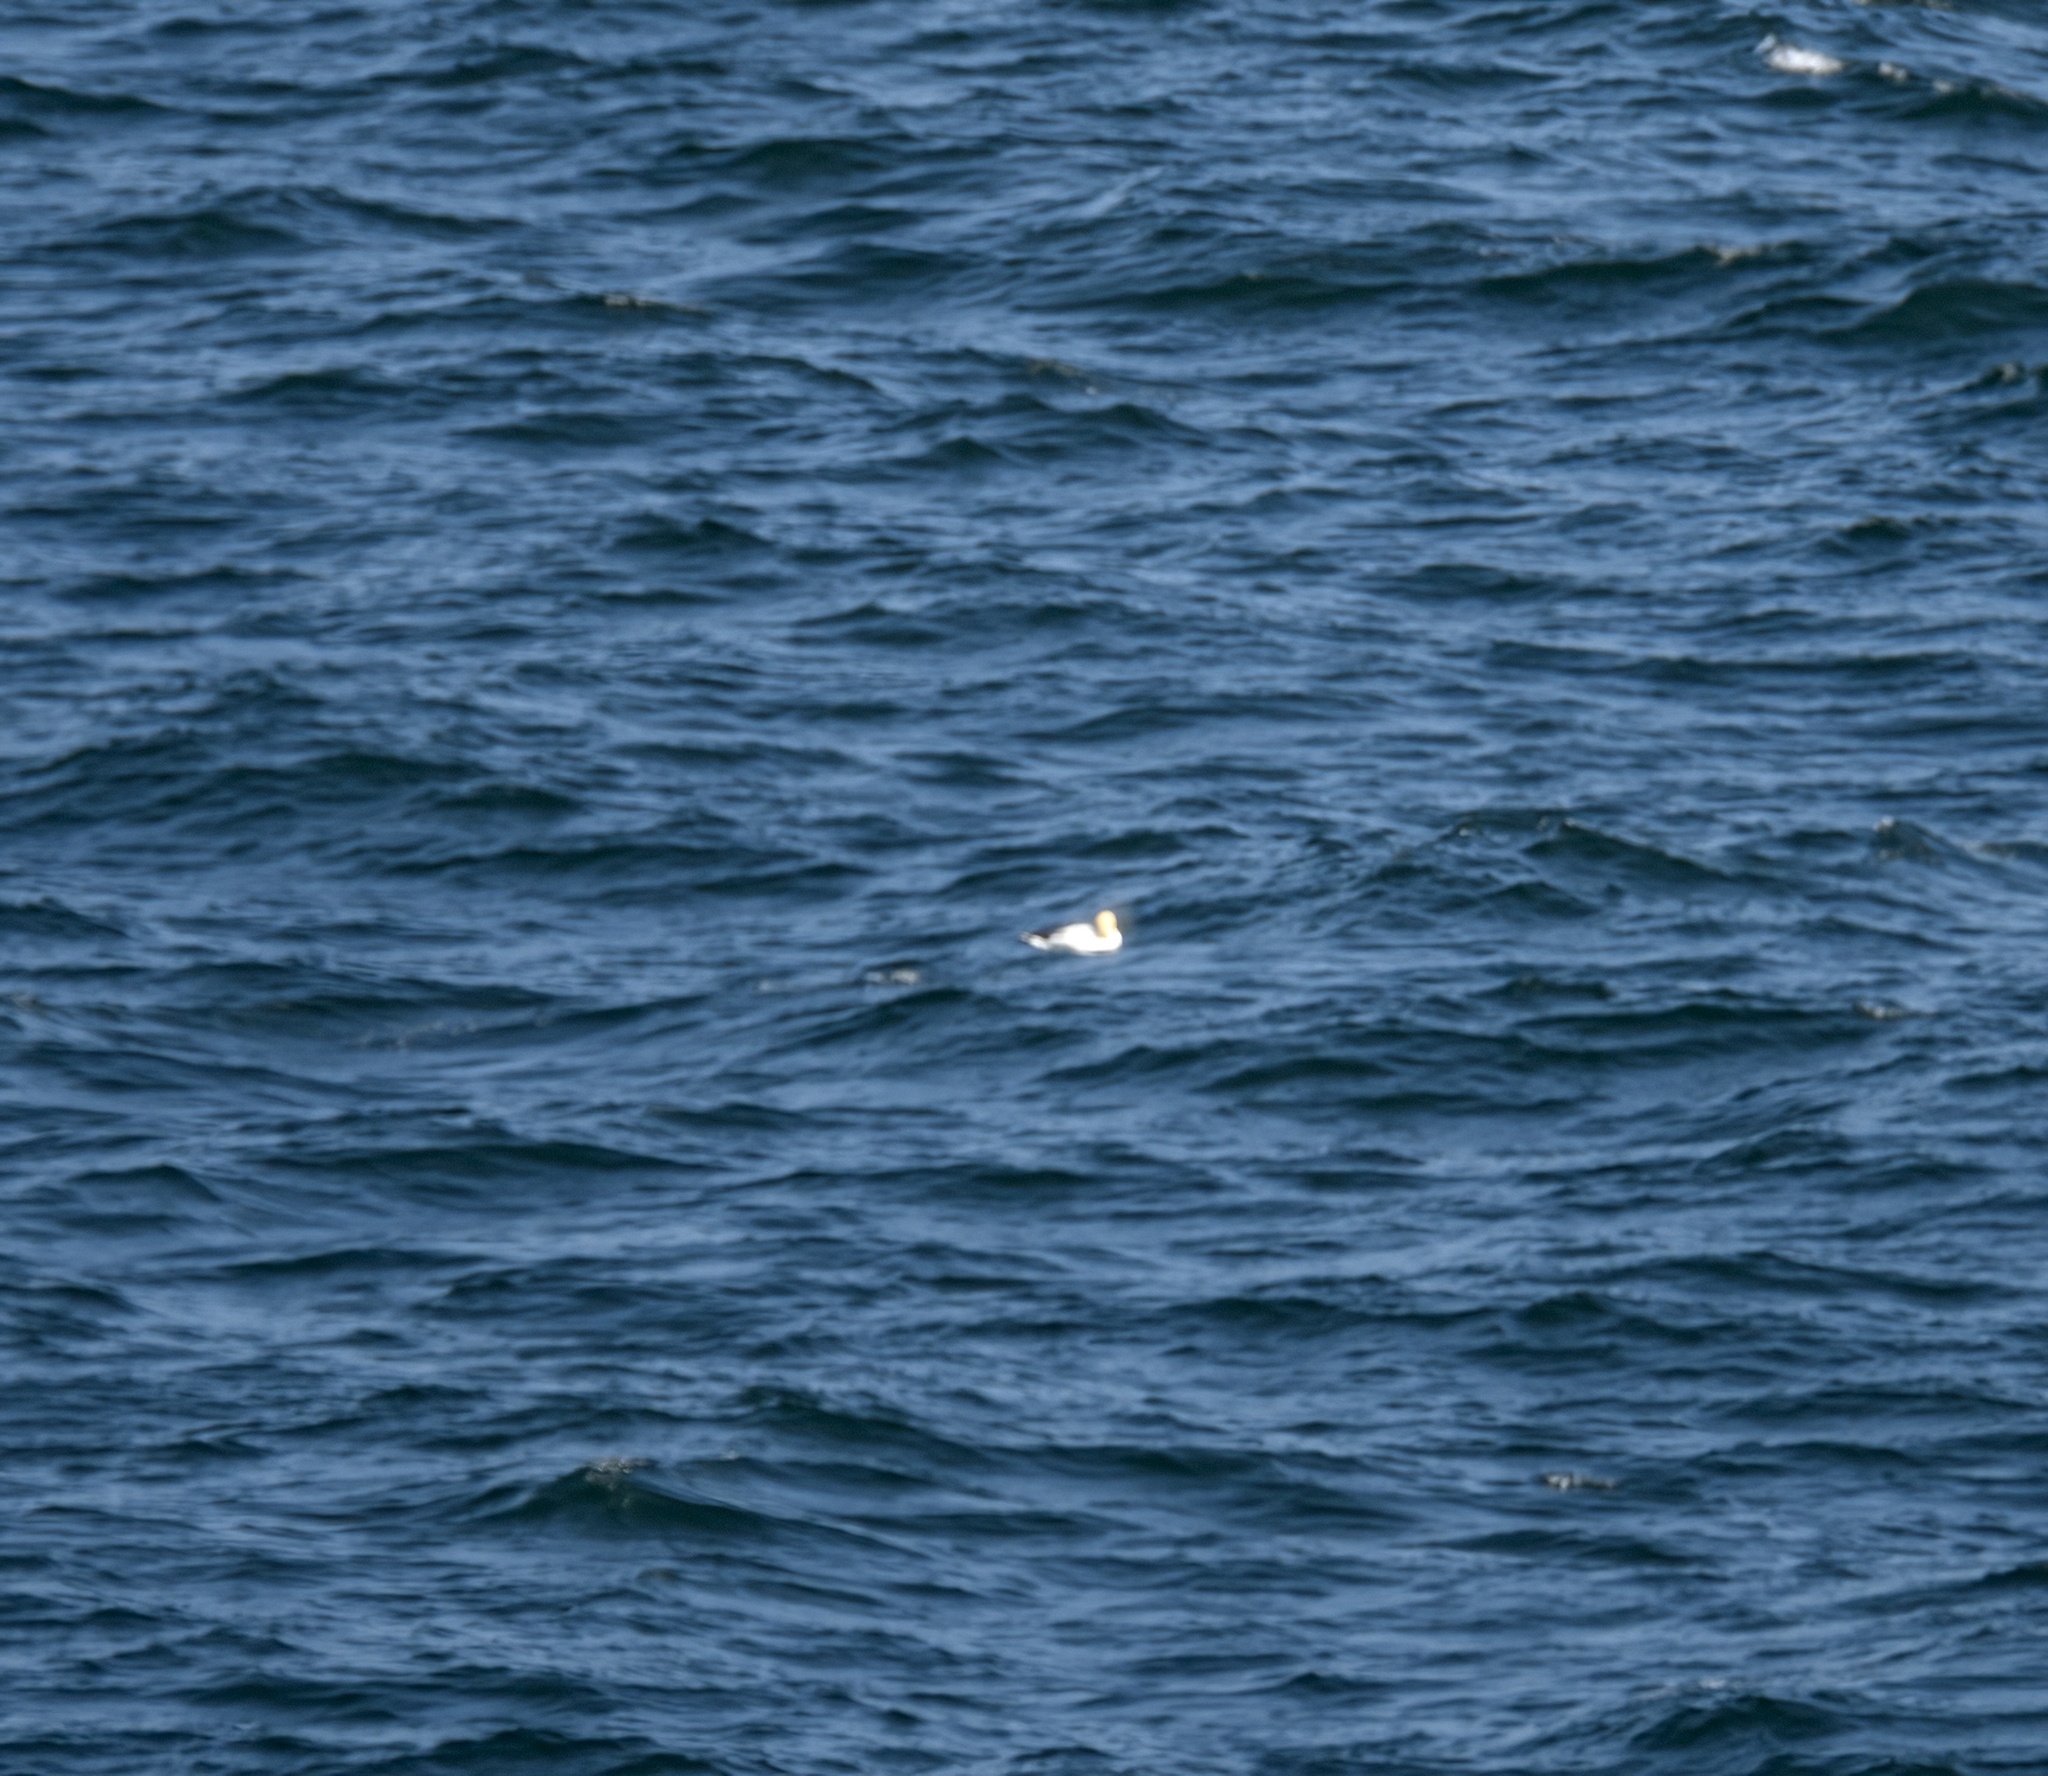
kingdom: Animalia
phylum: Chordata
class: Aves
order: Suliformes
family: Sulidae
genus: Morus
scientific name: Morus bassanus
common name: Northern gannet
